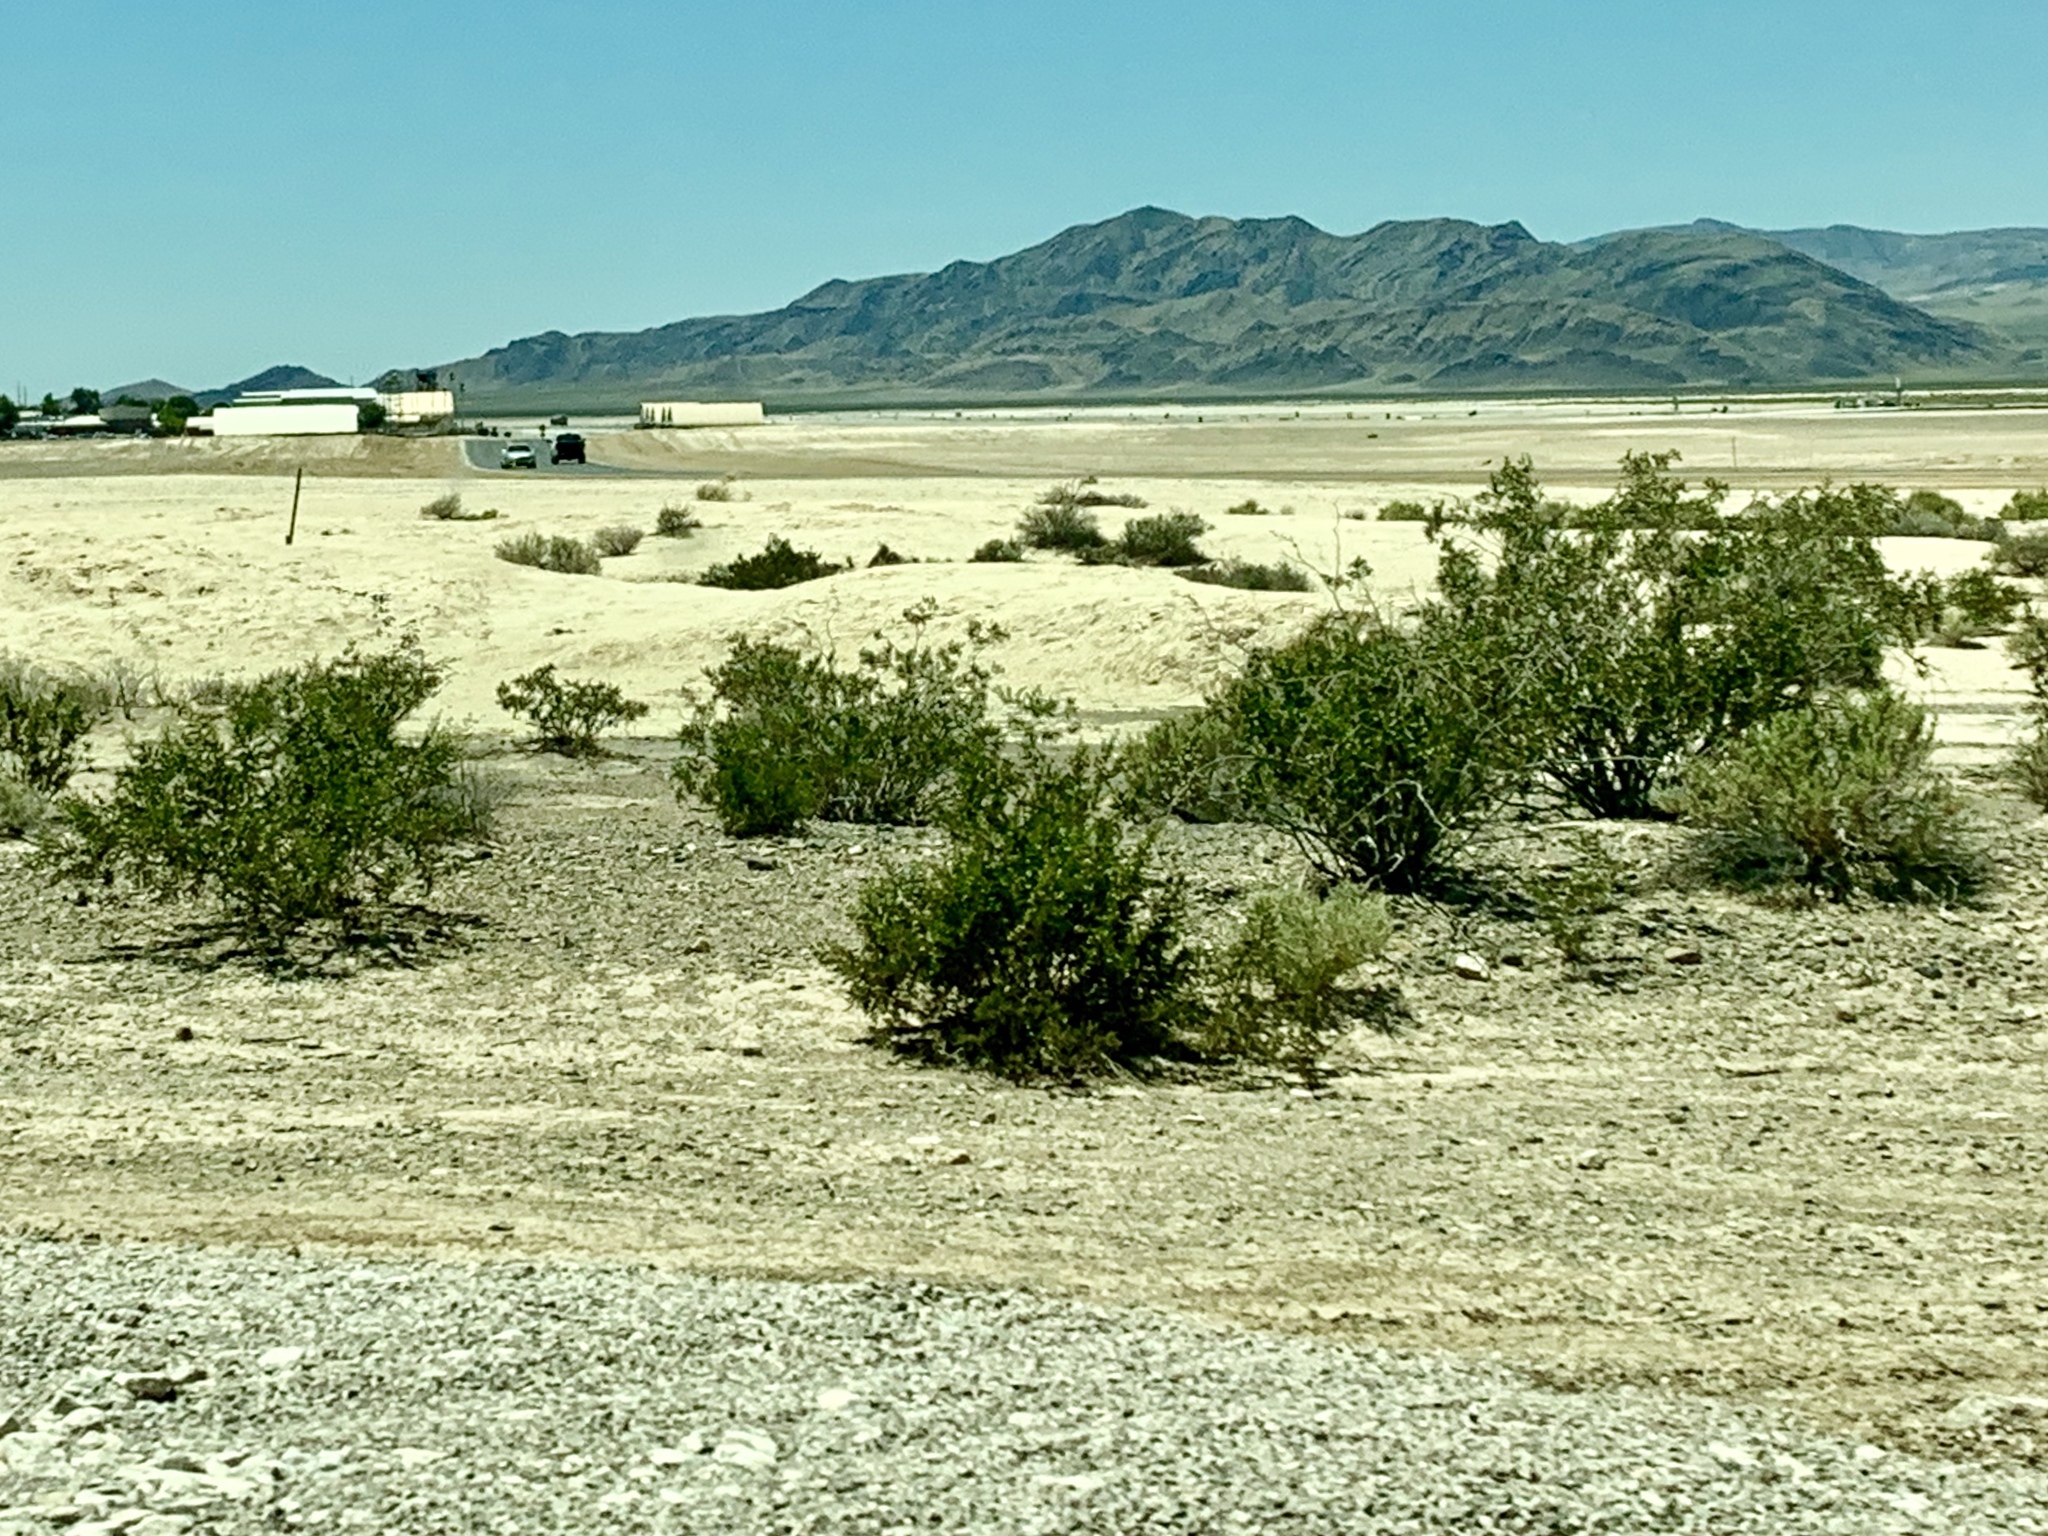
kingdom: Plantae
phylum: Tracheophyta
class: Magnoliopsida
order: Zygophyllales
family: Zygophyllaceae
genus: Larrea
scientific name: Larrea tridentata
